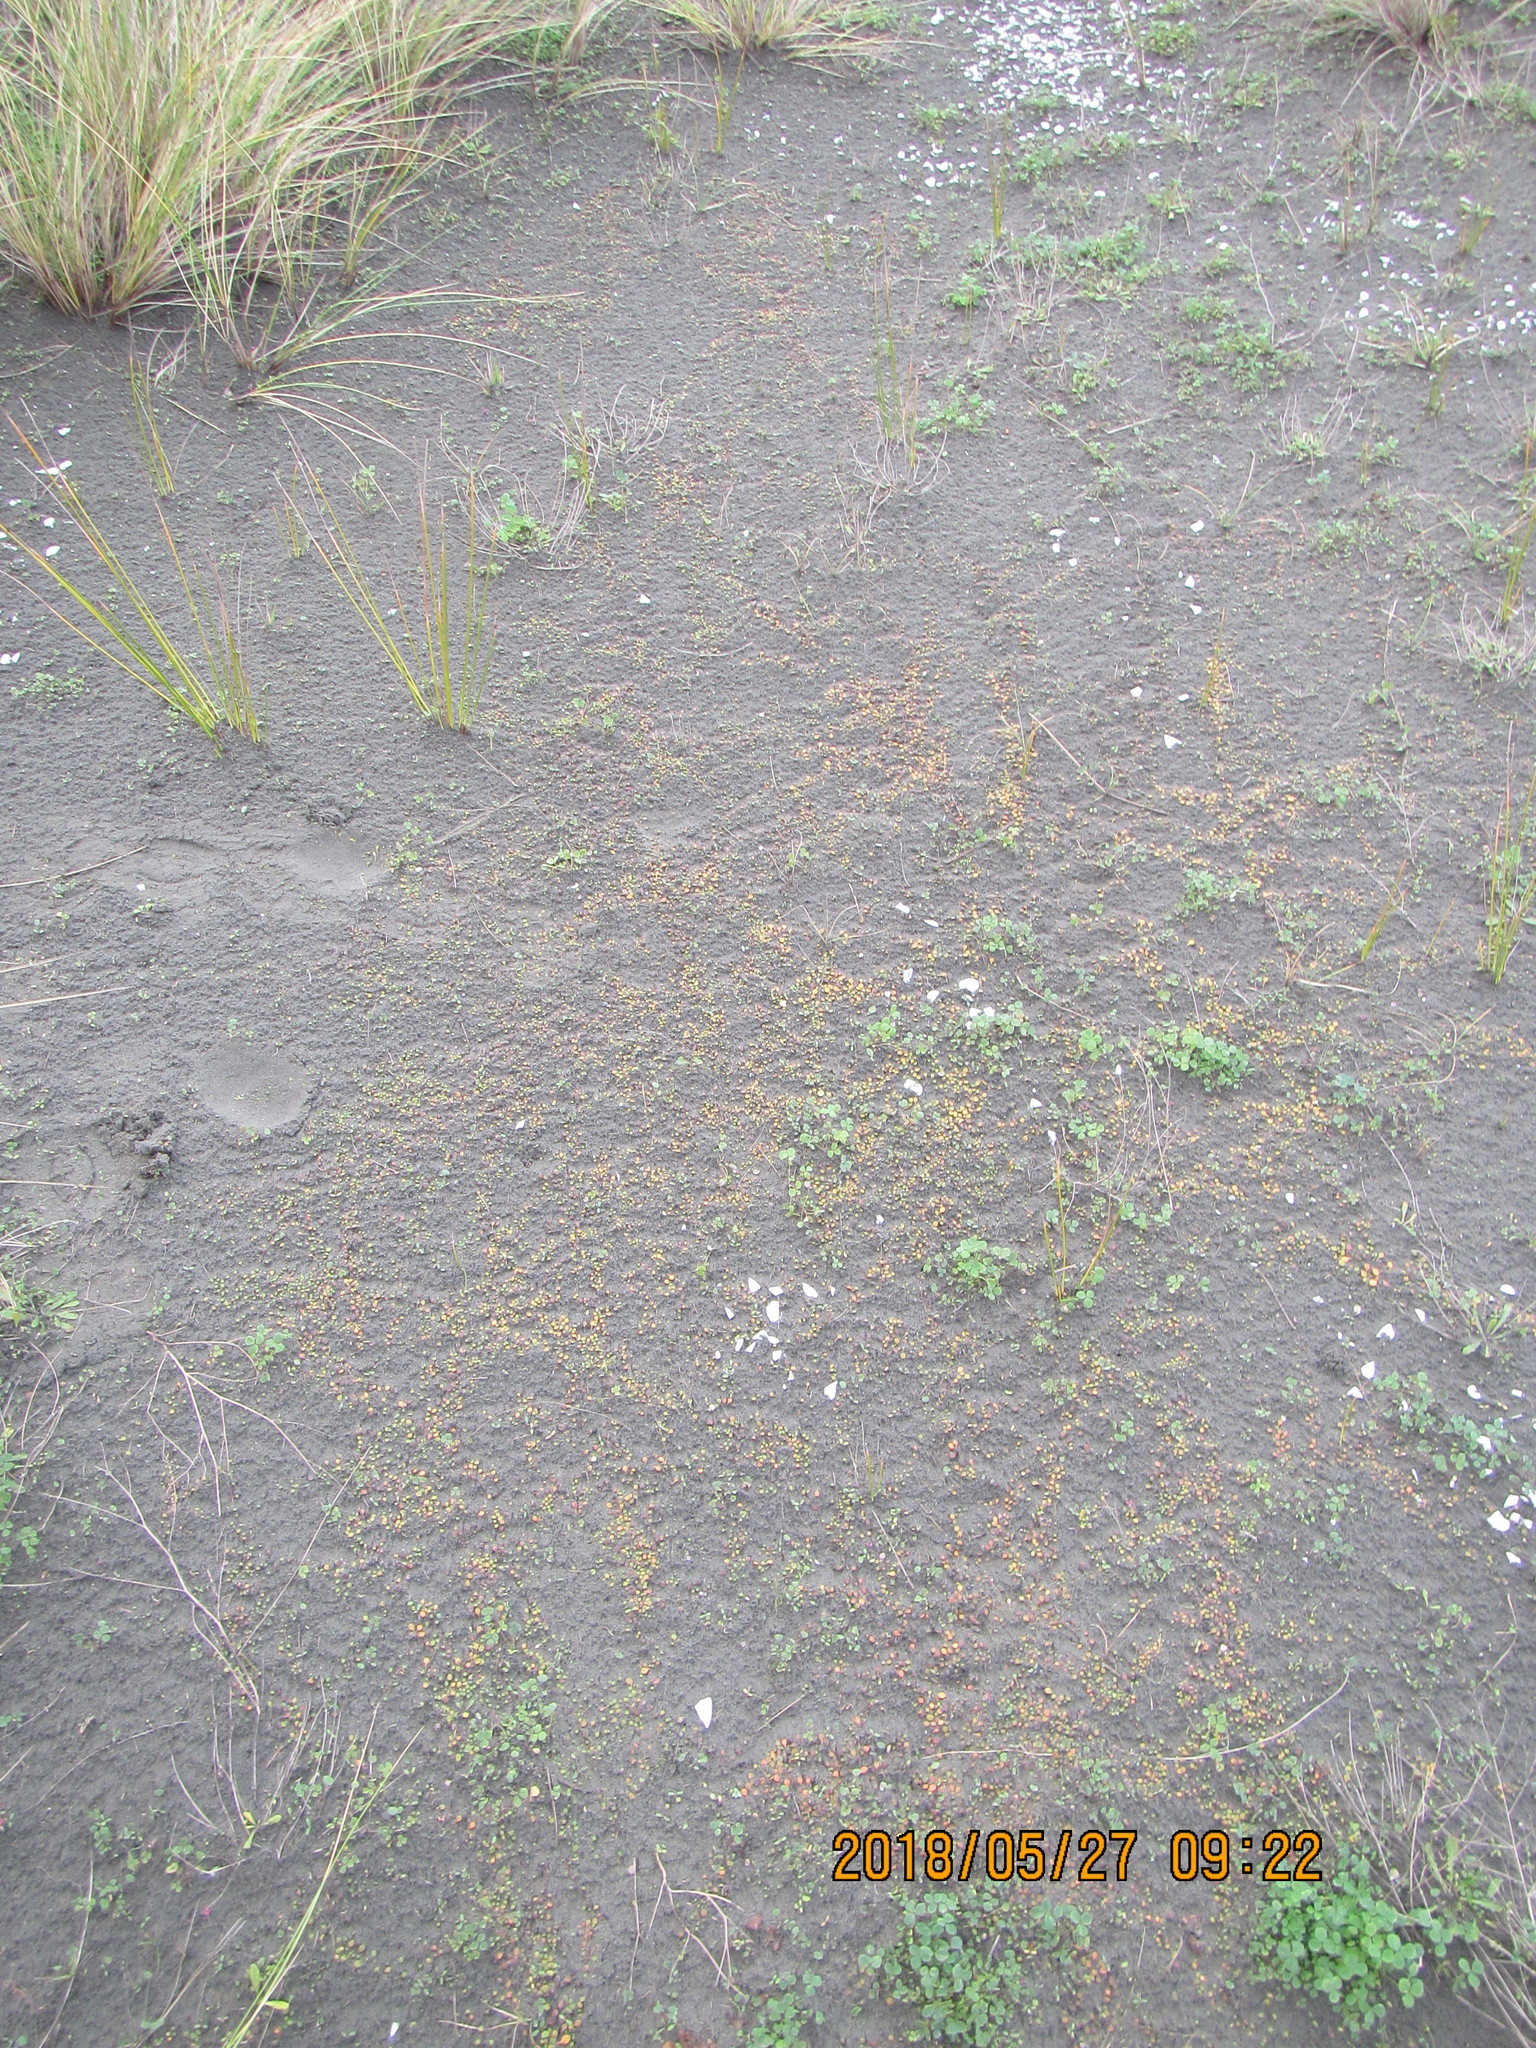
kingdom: Plantae
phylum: Tracheophyta
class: Magnoliopsida
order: Asterales
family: Goodeniaceae
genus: Goodenia
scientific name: Goodenia heenanii
